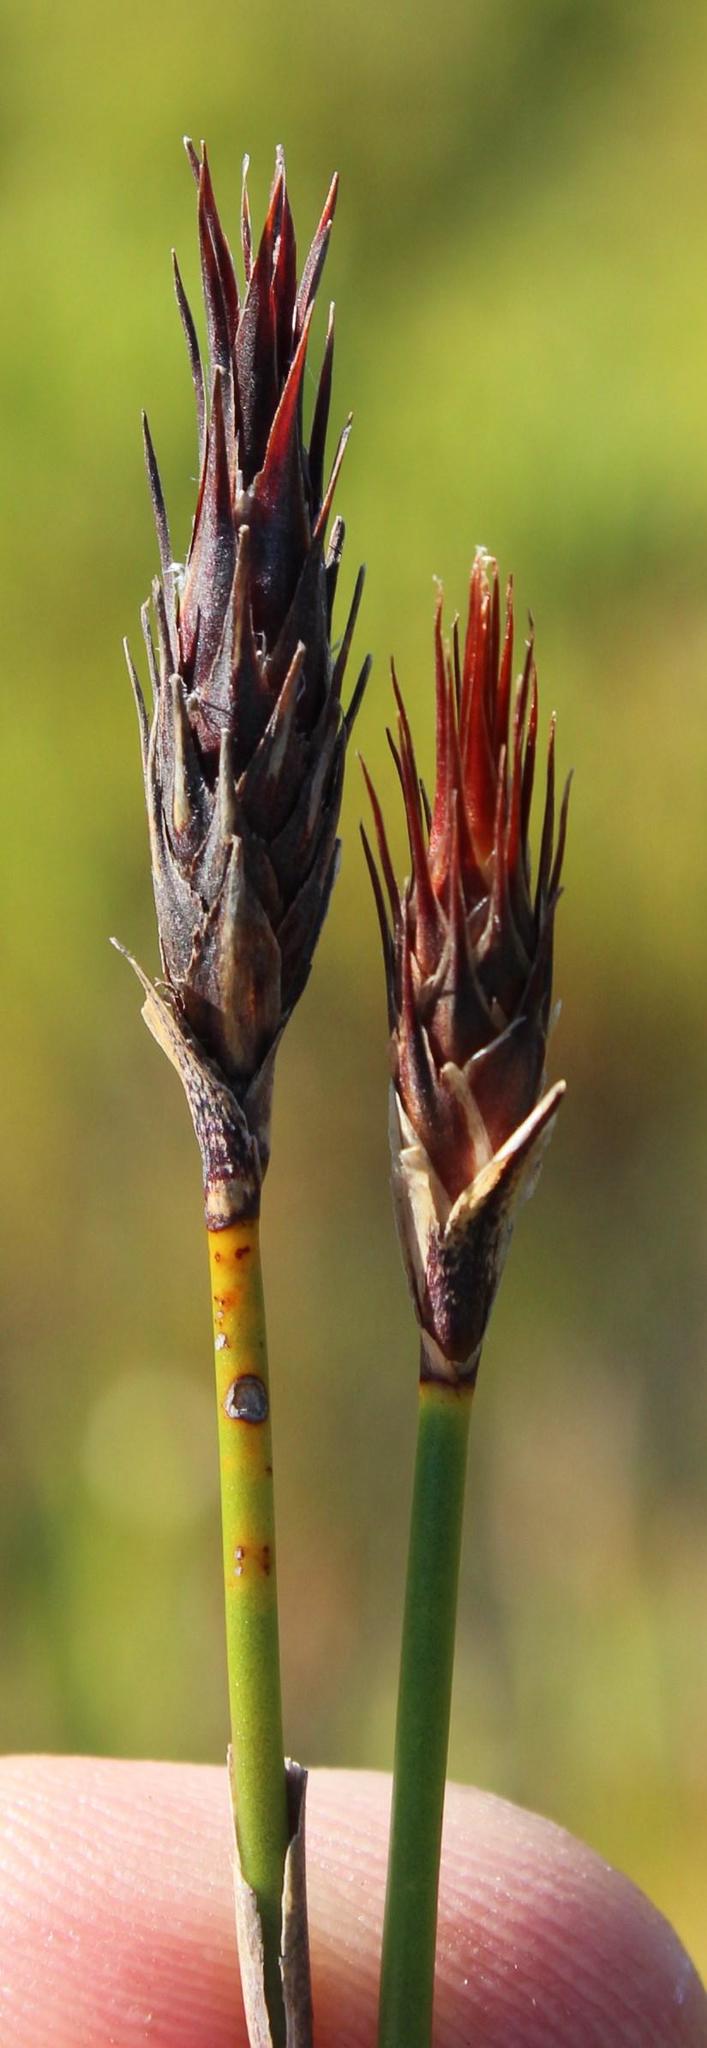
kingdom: Plantae
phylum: Tracheophyta
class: Liliopsida
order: Poales
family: Restionaceae
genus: Hypodiscus
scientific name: Hypodiscus aristatus
